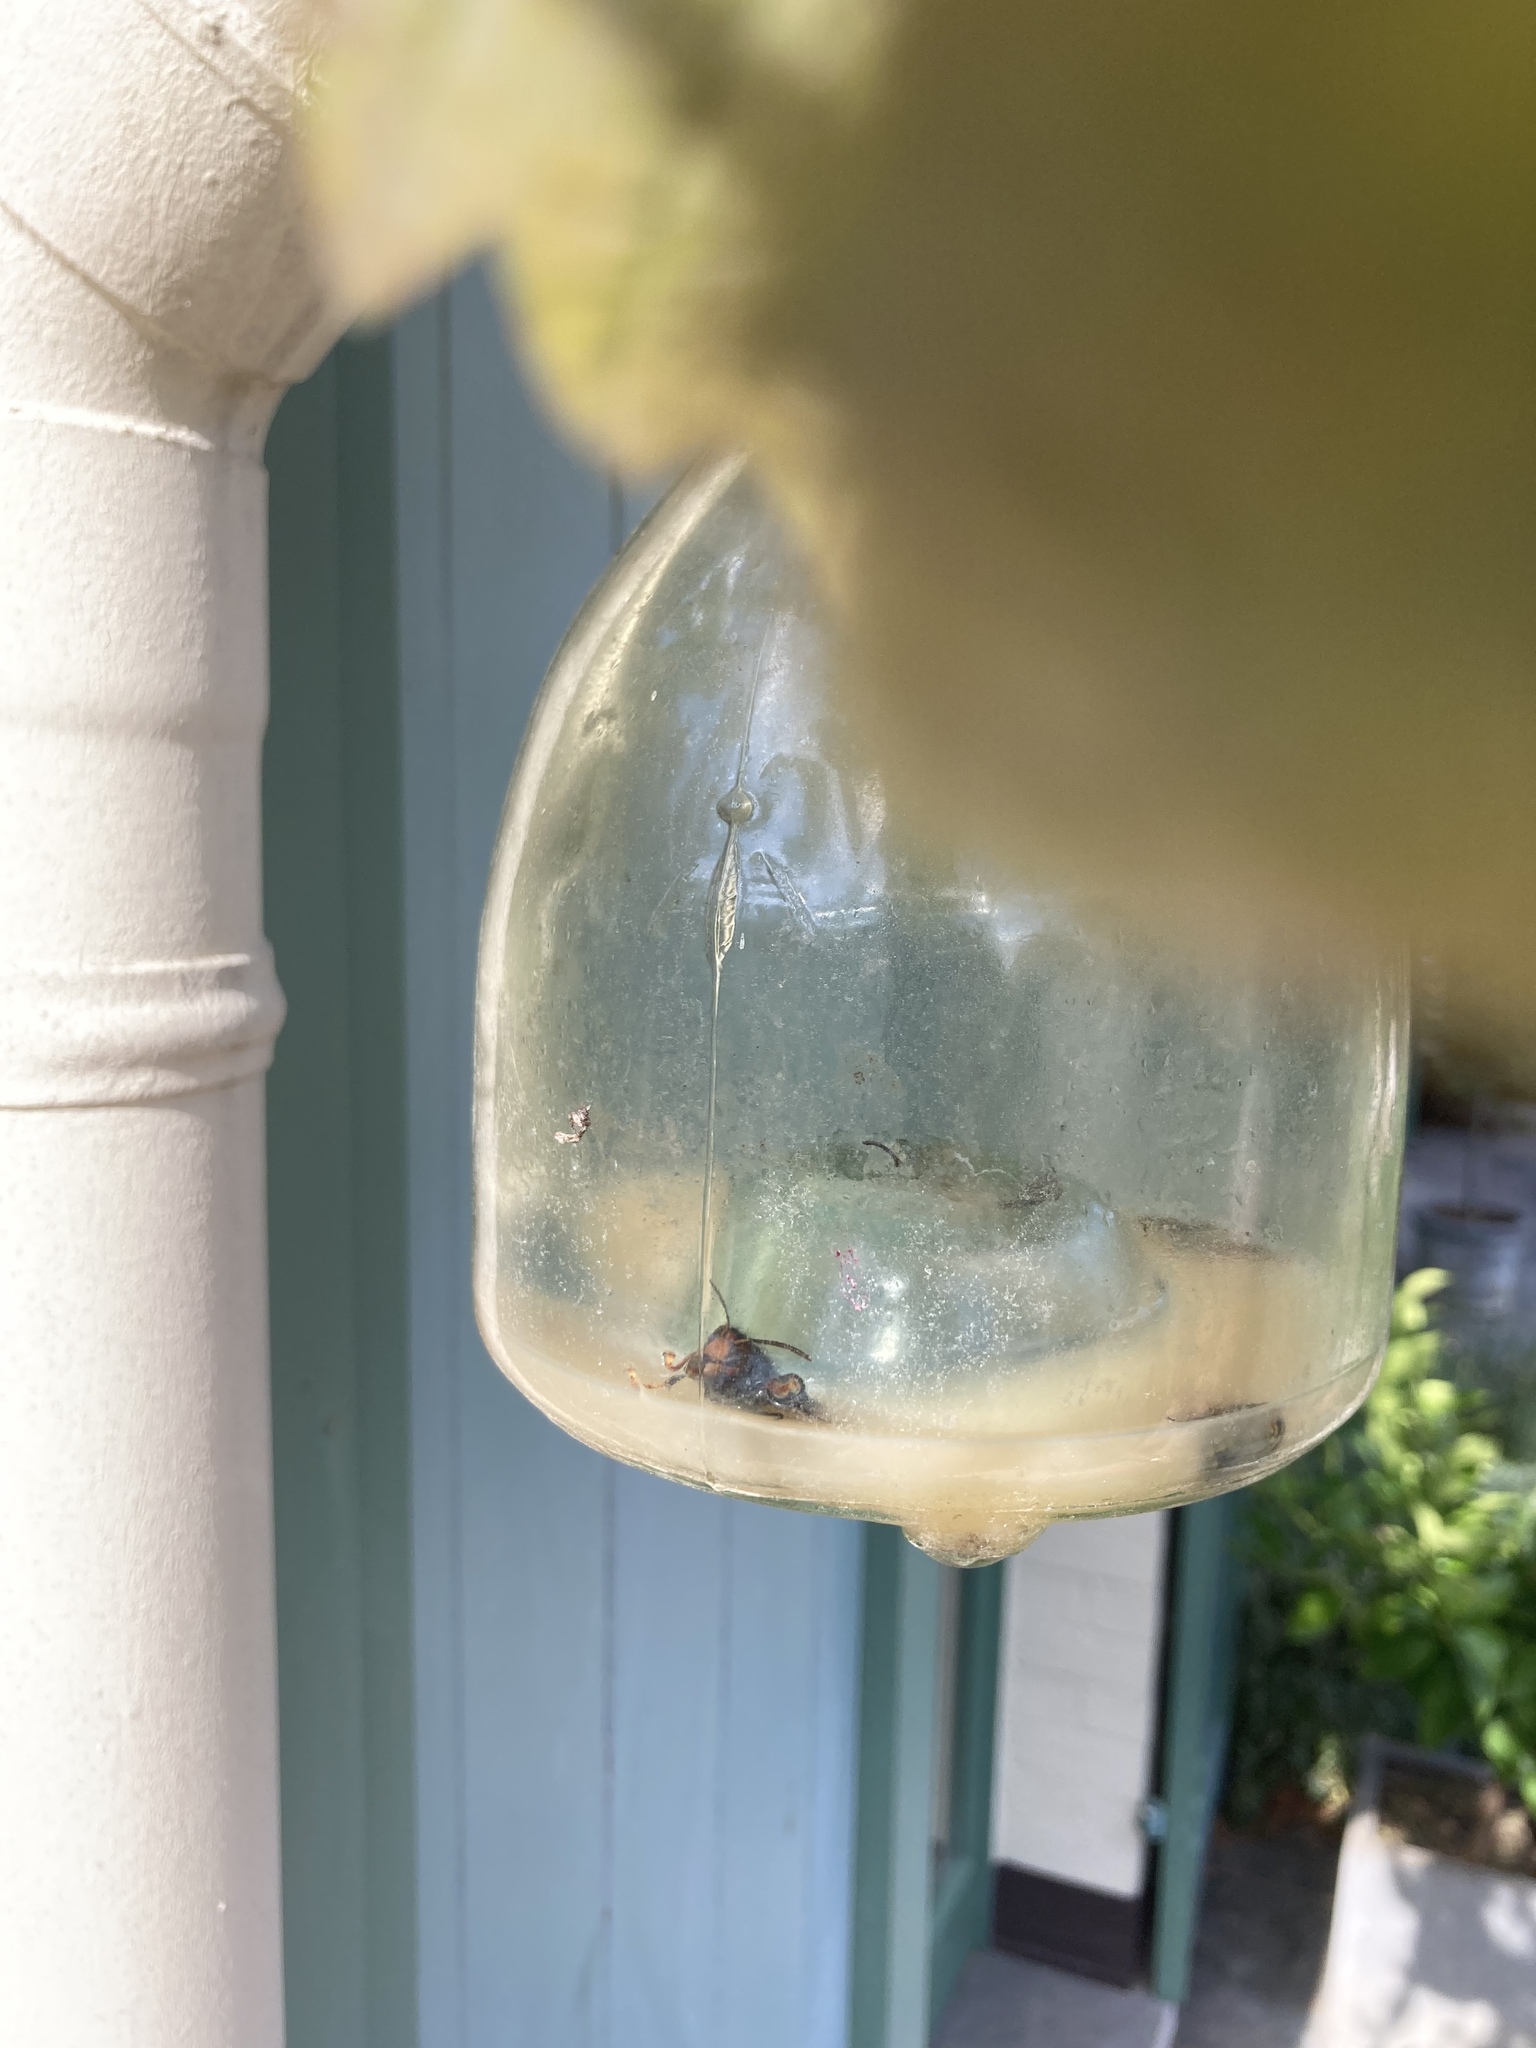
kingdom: Animalia
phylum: Arthropoda
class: Insecta
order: Hymenoptera
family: Vespidae
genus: Vespa
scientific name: Vespa velutina
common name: Asian hornet
